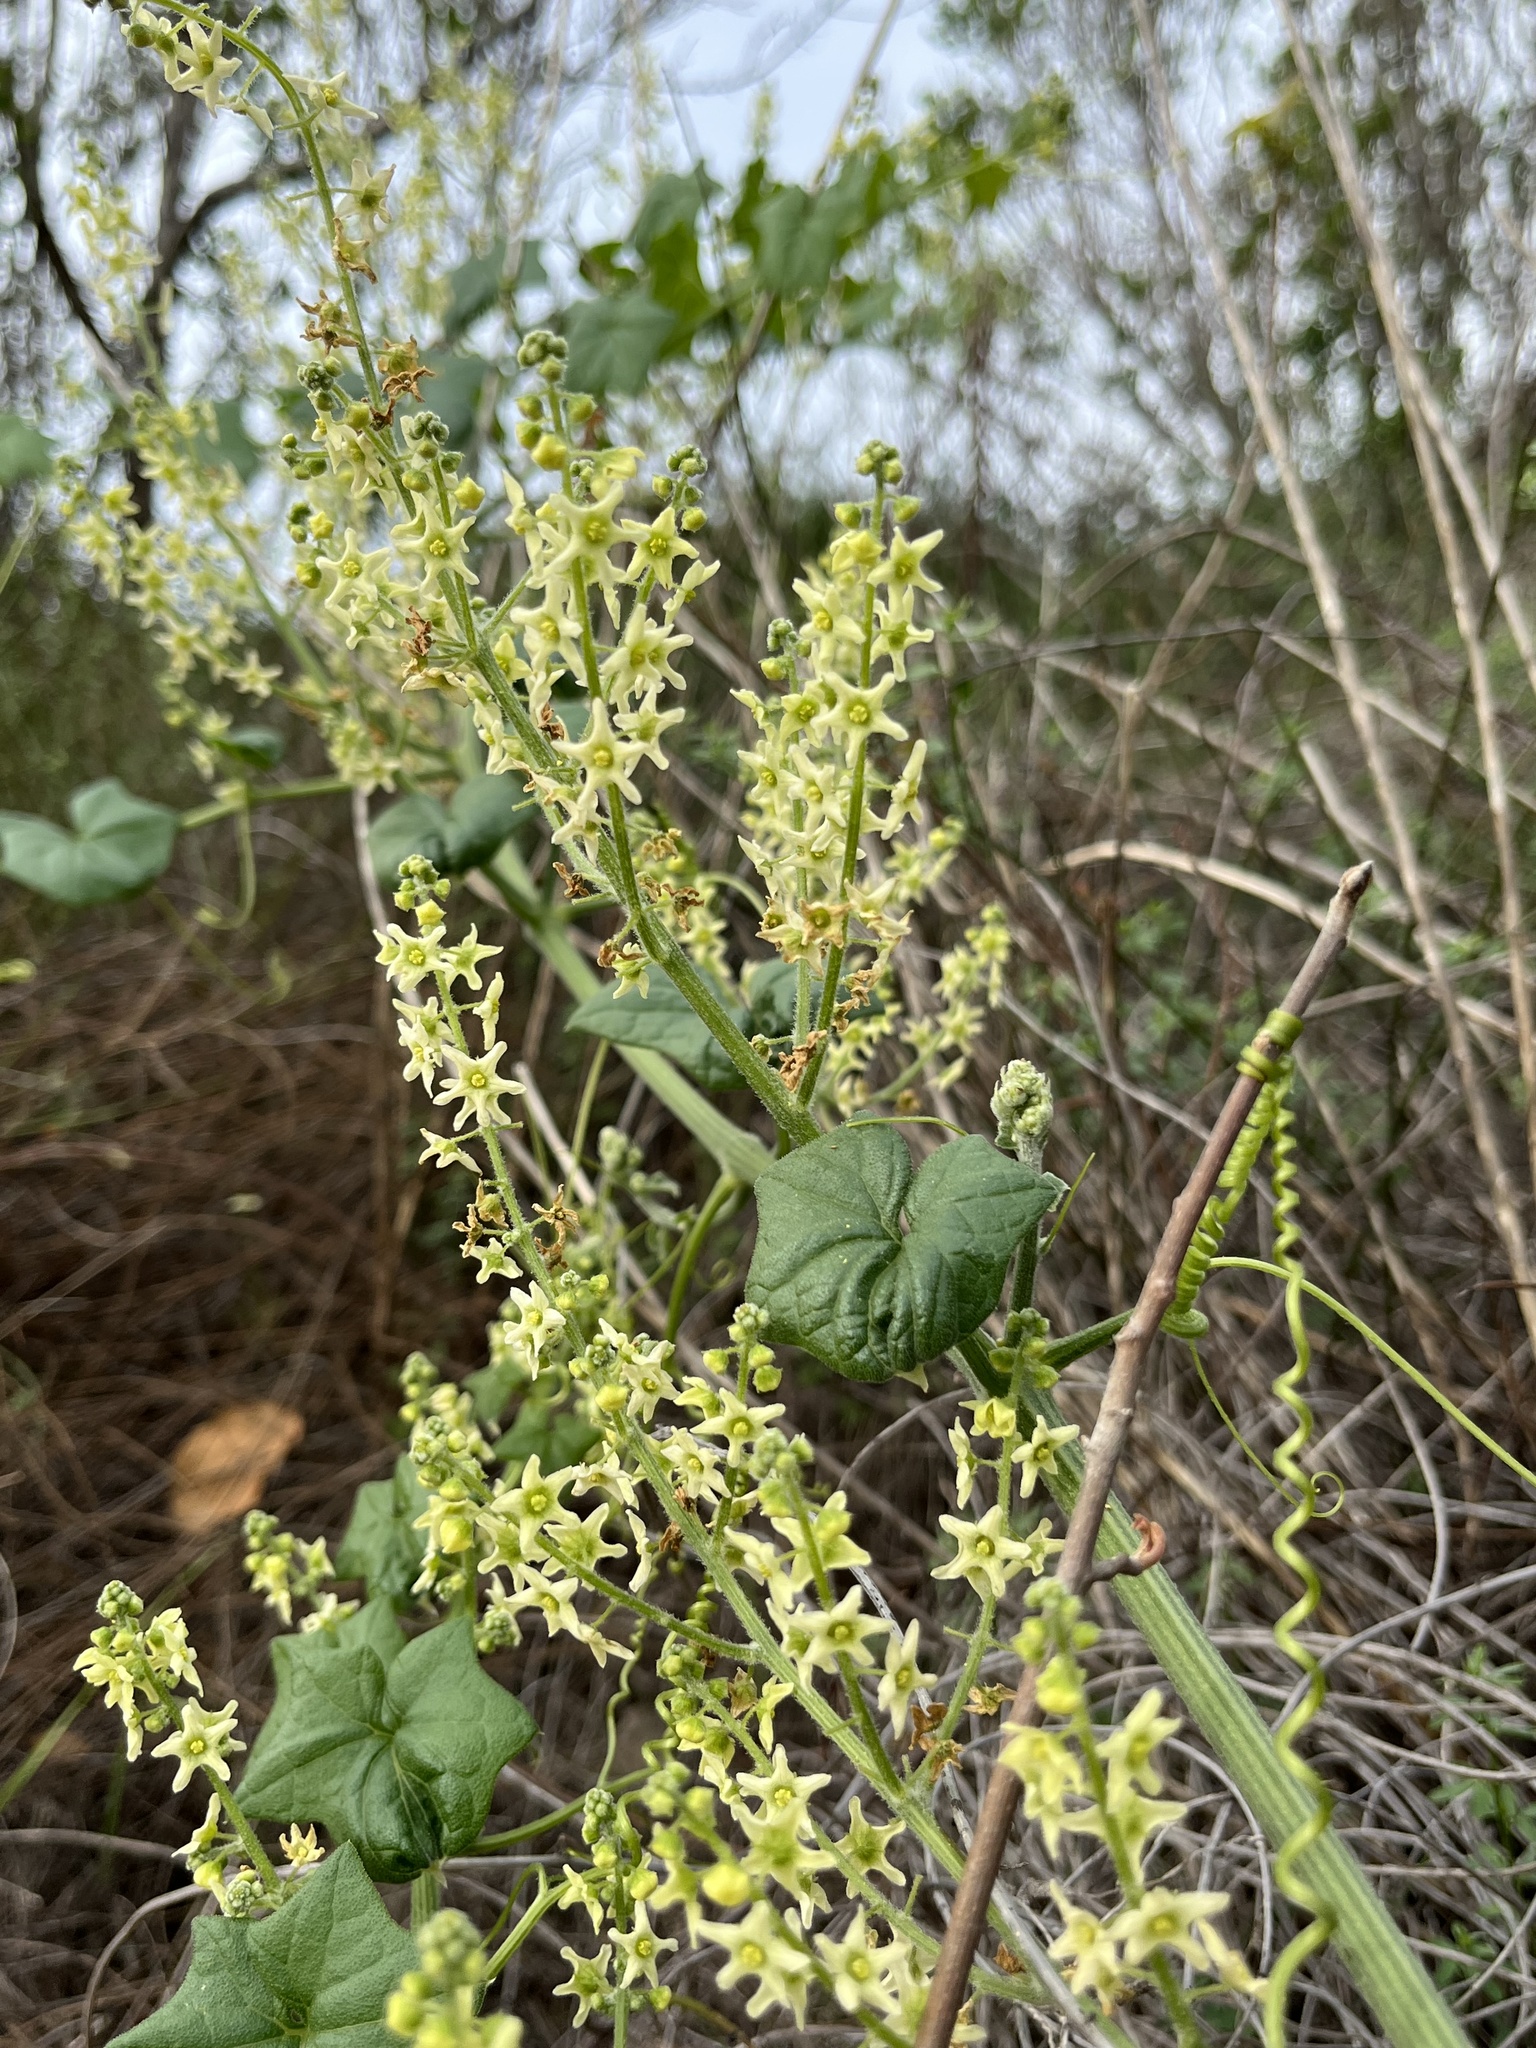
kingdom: Plantae
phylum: Tracheophyta
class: Magnoliopsida
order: Cucurbitales
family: Cucurbitaceae
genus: Marah
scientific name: Marah fabacea
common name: California manroot
